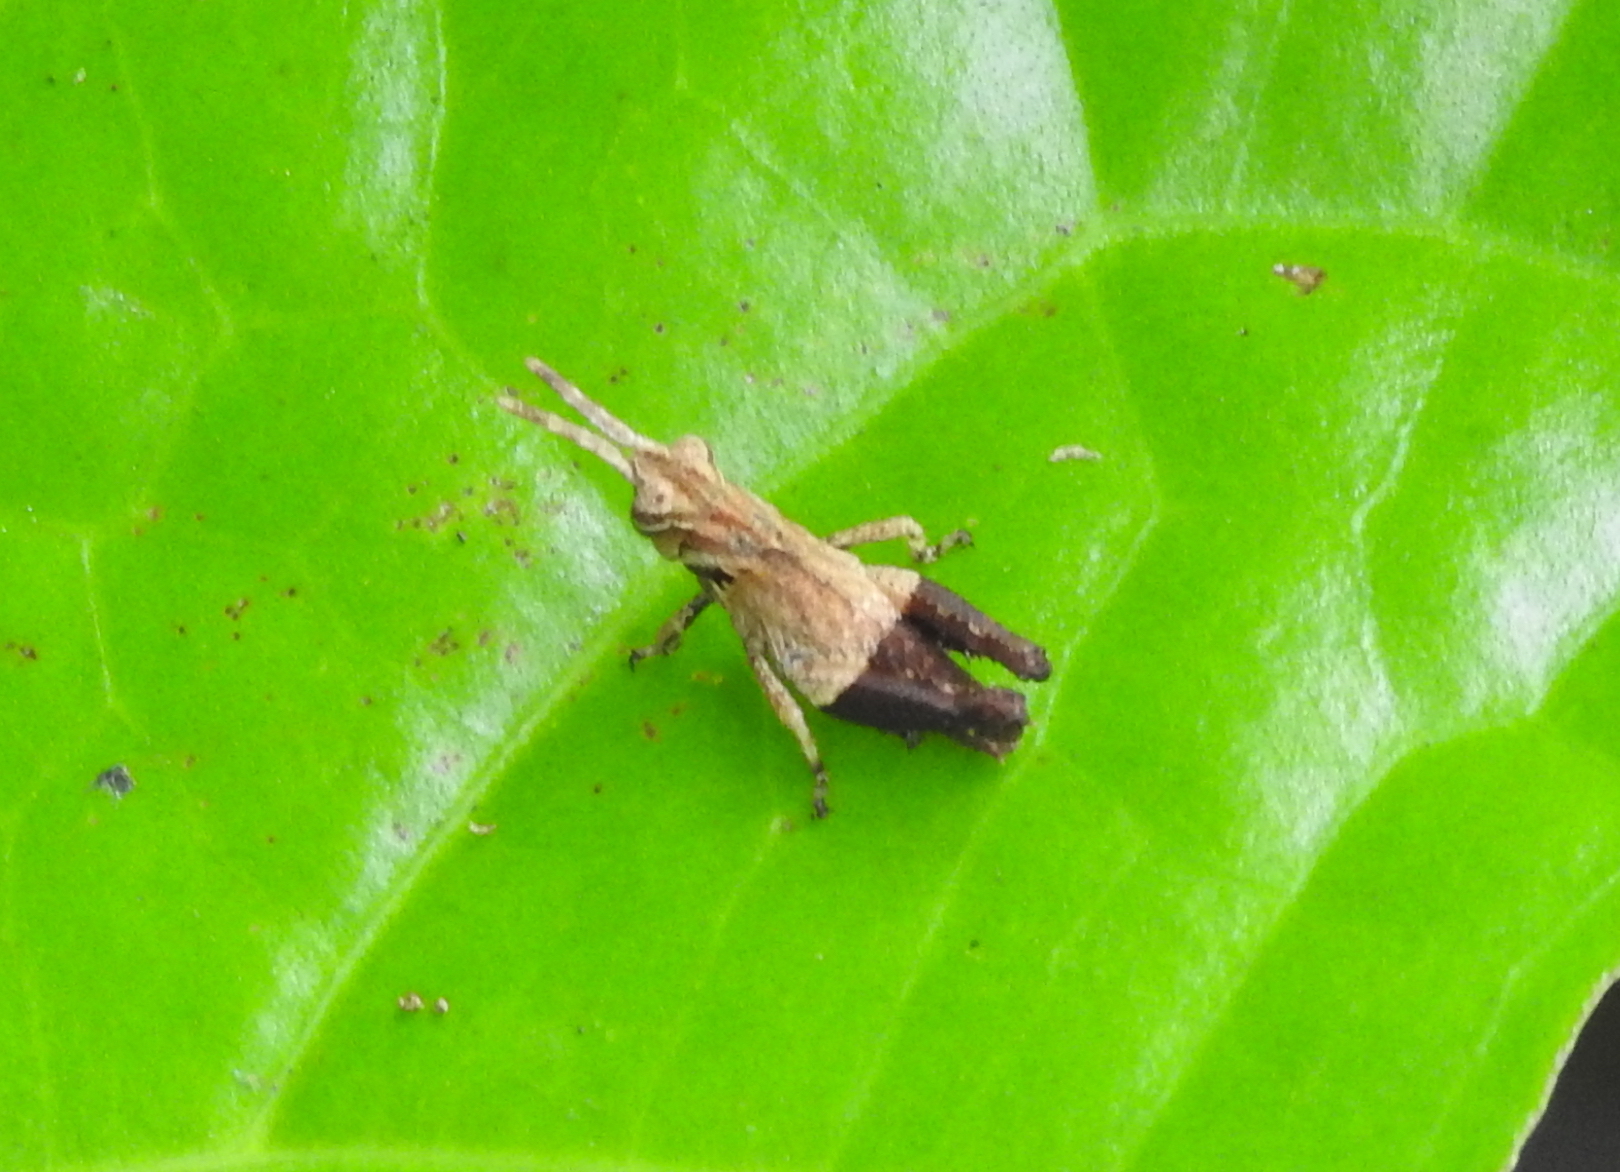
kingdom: Animalia
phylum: Arthropoda
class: Insecta
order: Orthoptera
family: Acrididae
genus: Traulia
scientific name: Traulia azureipennis
